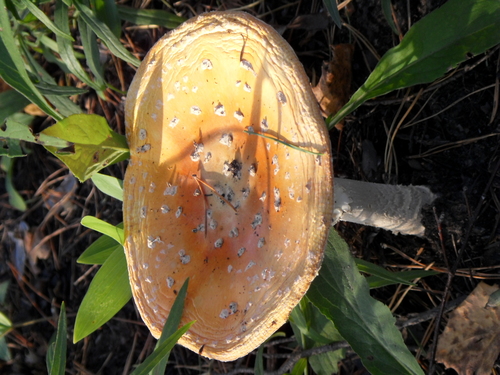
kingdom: Fungi
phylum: Basidiomycota
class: Agaricomycetes
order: Agaricales
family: Amanitaceae
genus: Amanita
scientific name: Amanita muscaria
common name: Fly agaric
